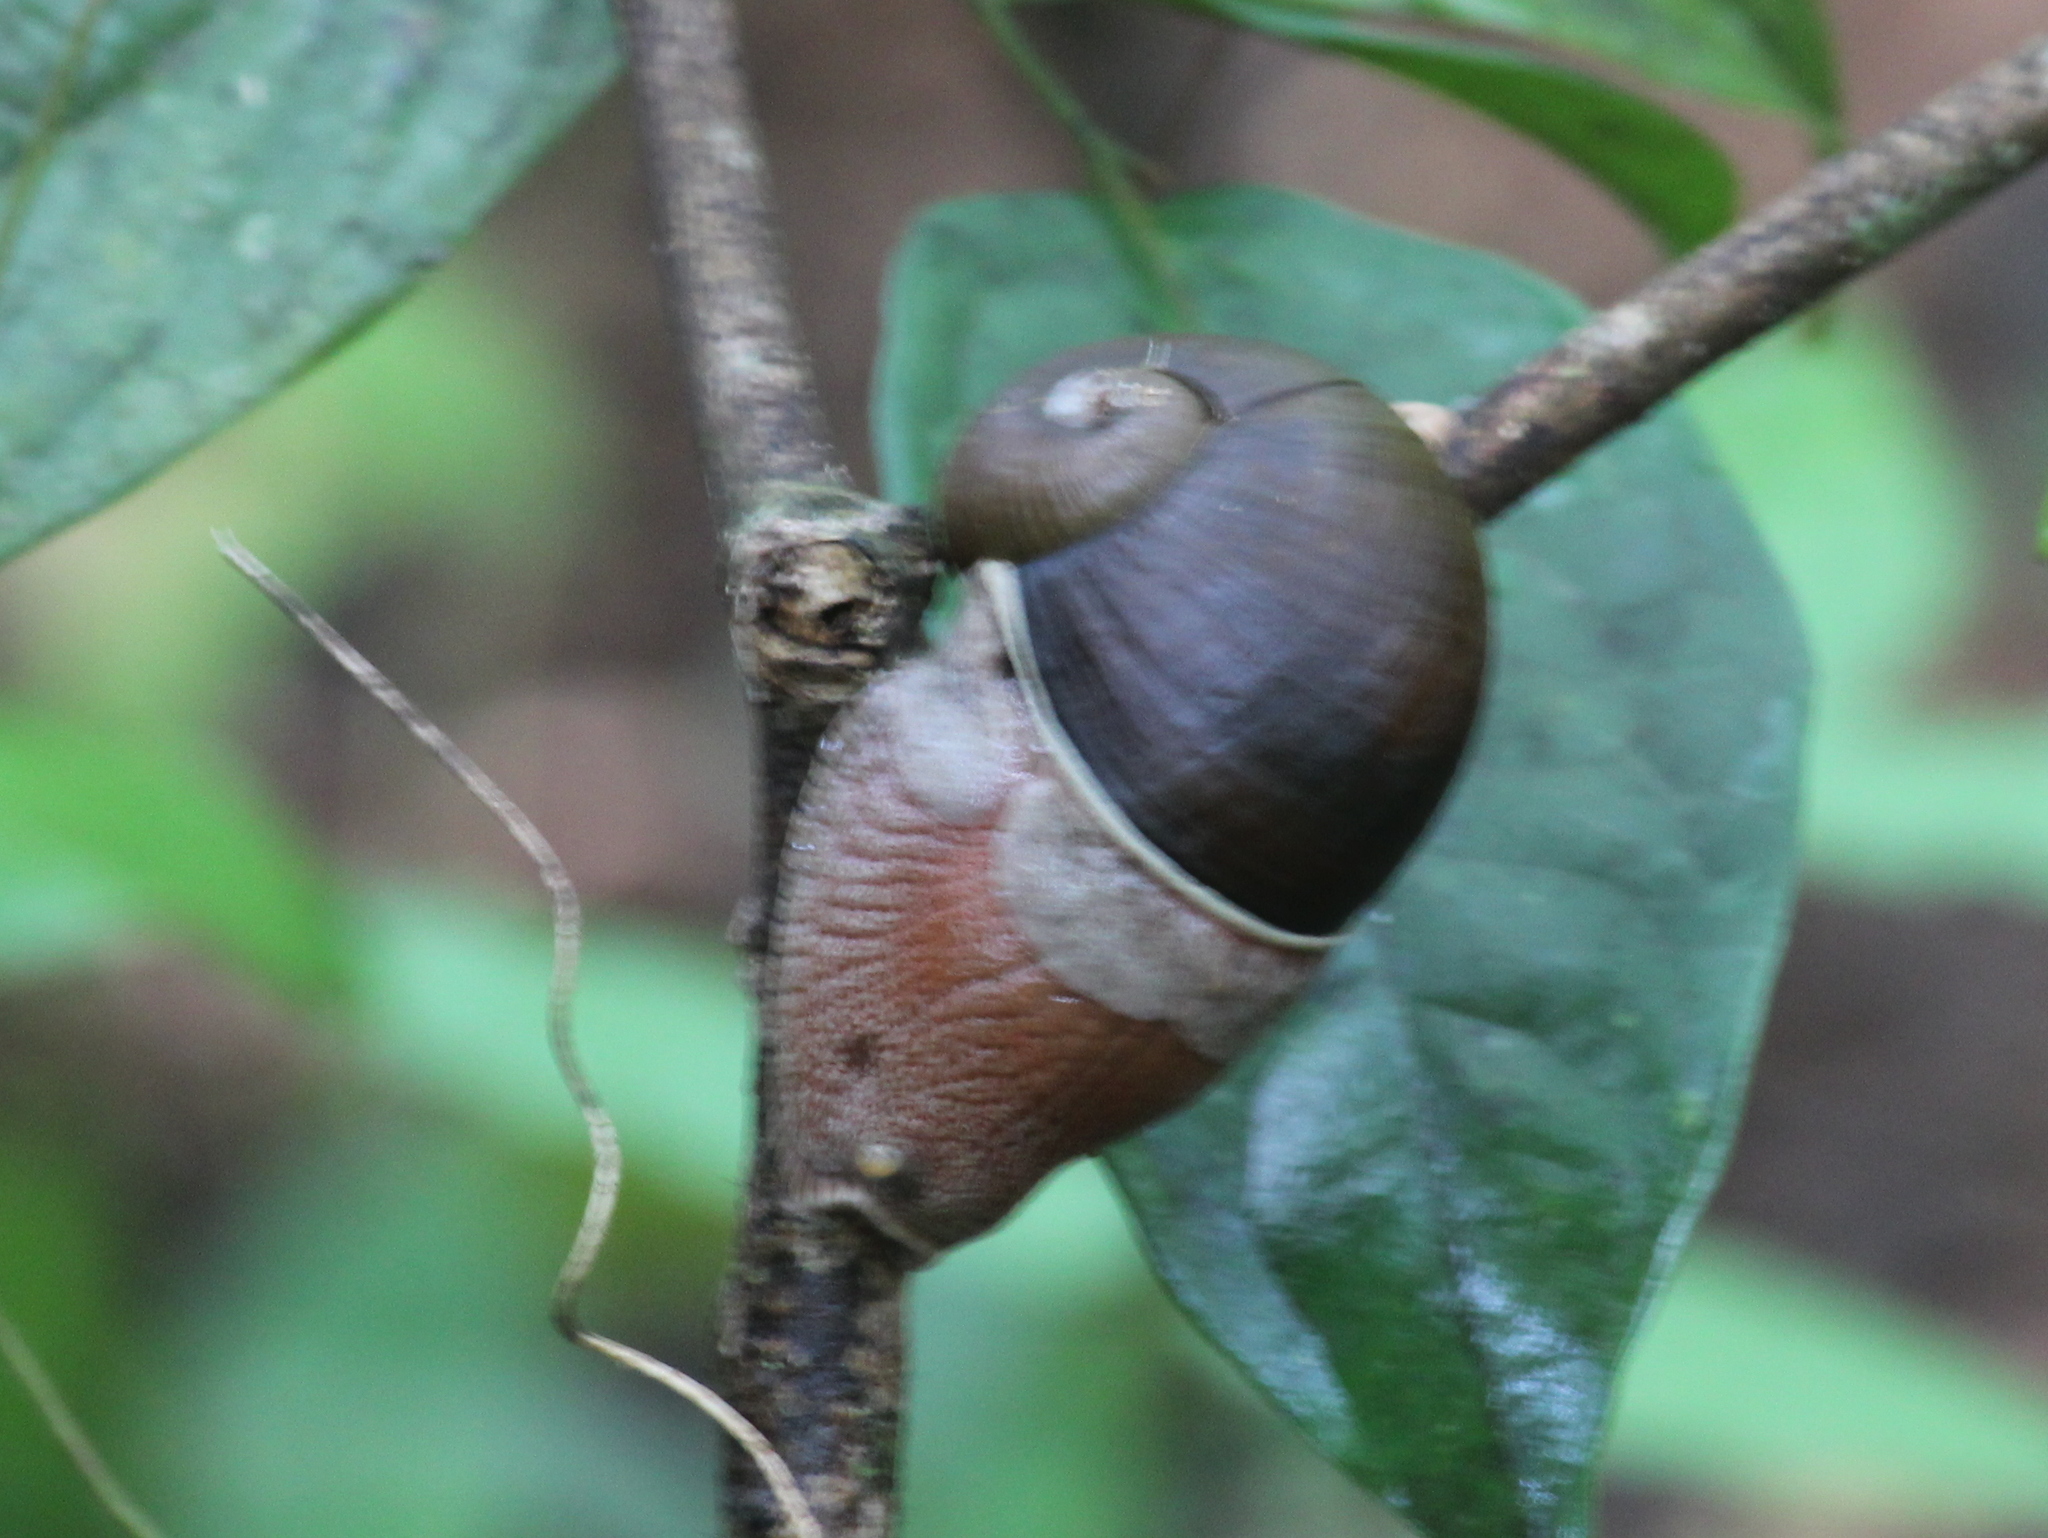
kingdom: Animalia
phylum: Mollusca
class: Gastropoda
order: Stylommatophora
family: Ariophantidae
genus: Indrella
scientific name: Indrella ampulla
